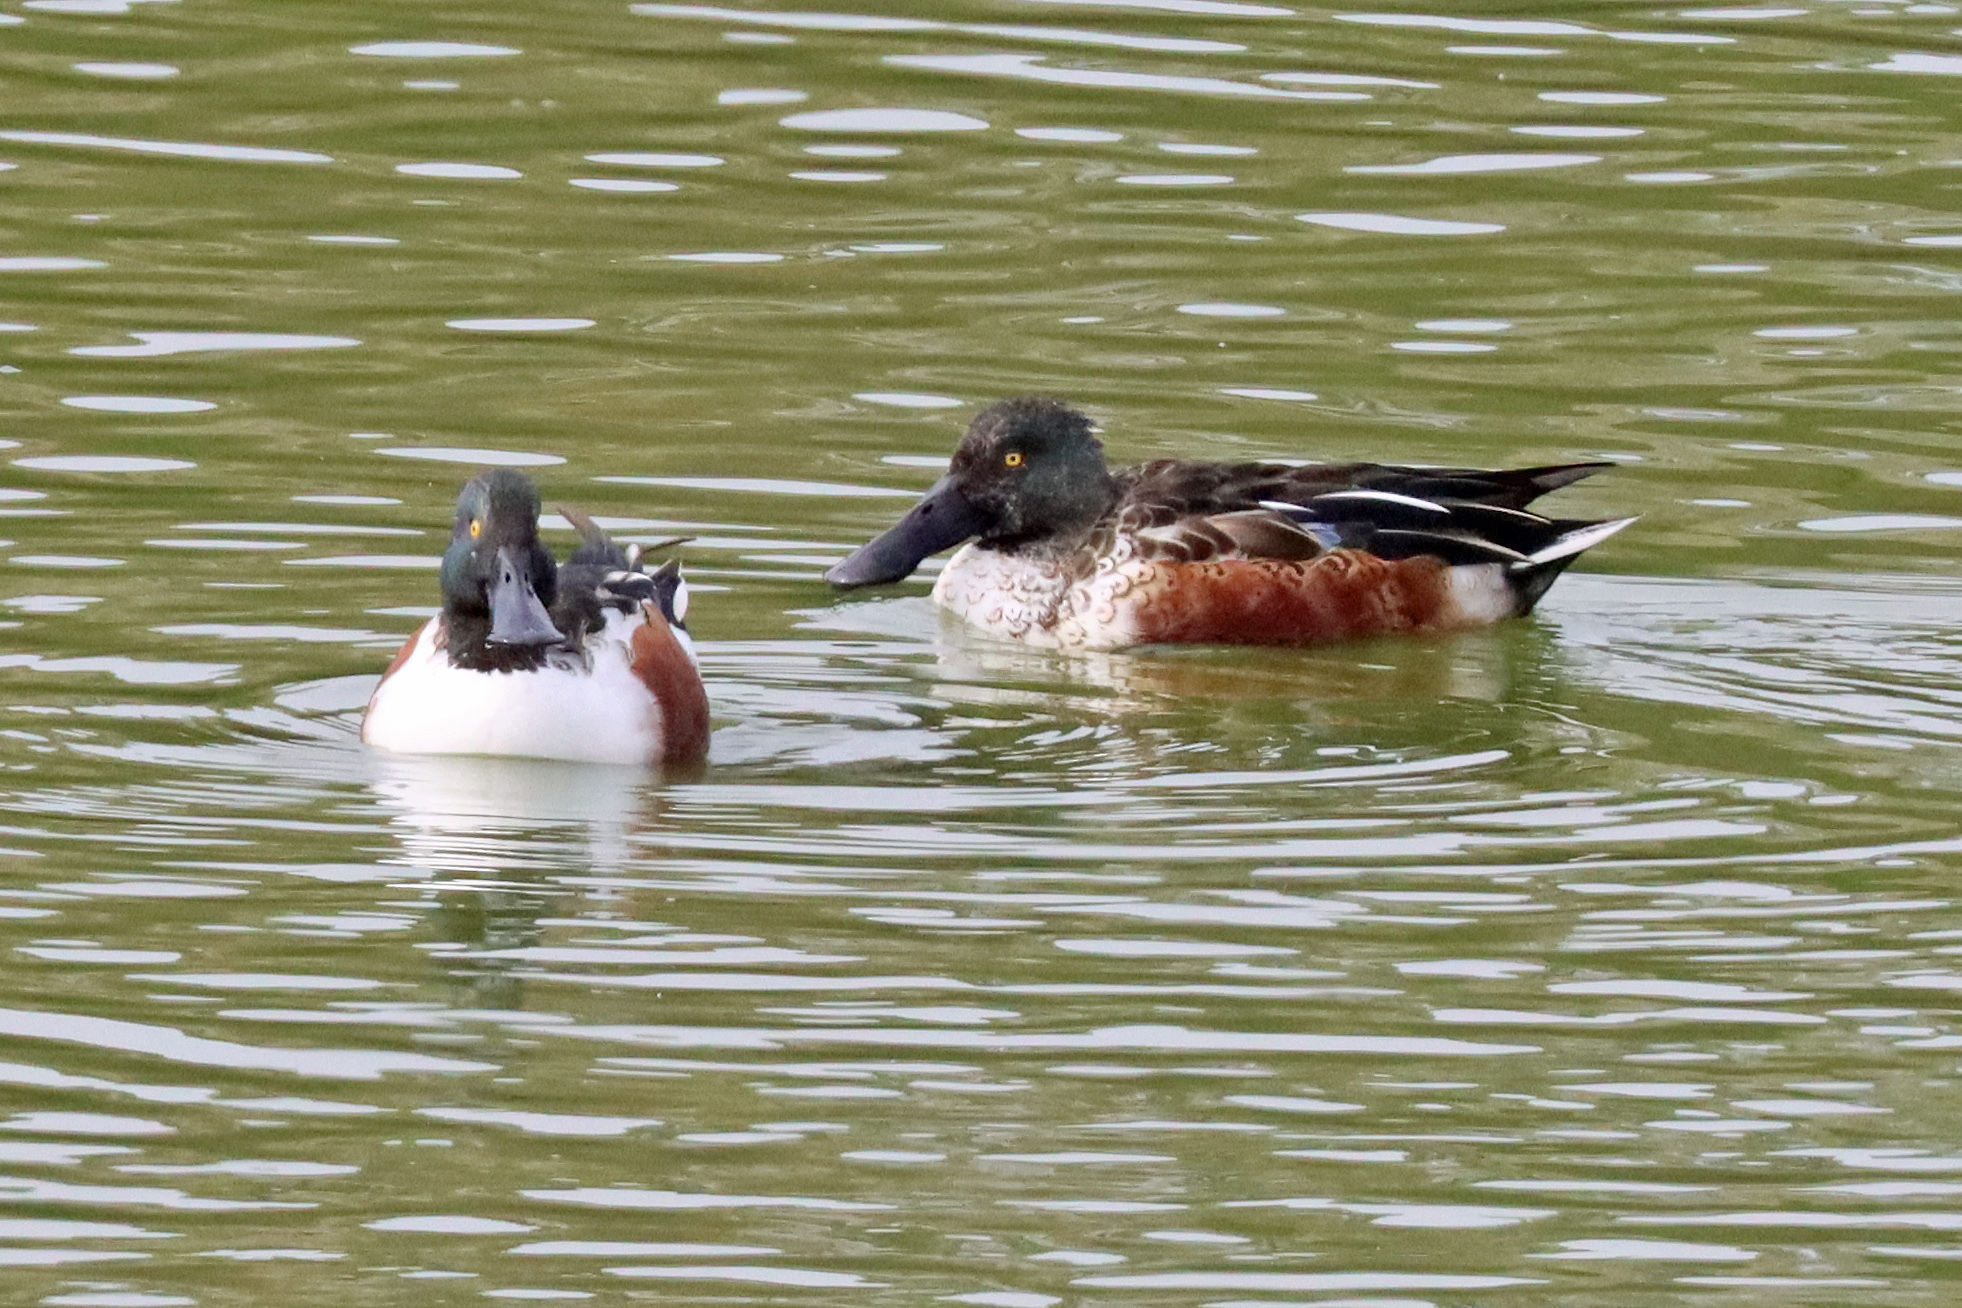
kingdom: Animalia
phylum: Chordata
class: Aves
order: Anseriformes
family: Anatidae
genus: Spatula
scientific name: Spatula clypeata
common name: Northern shoveler
